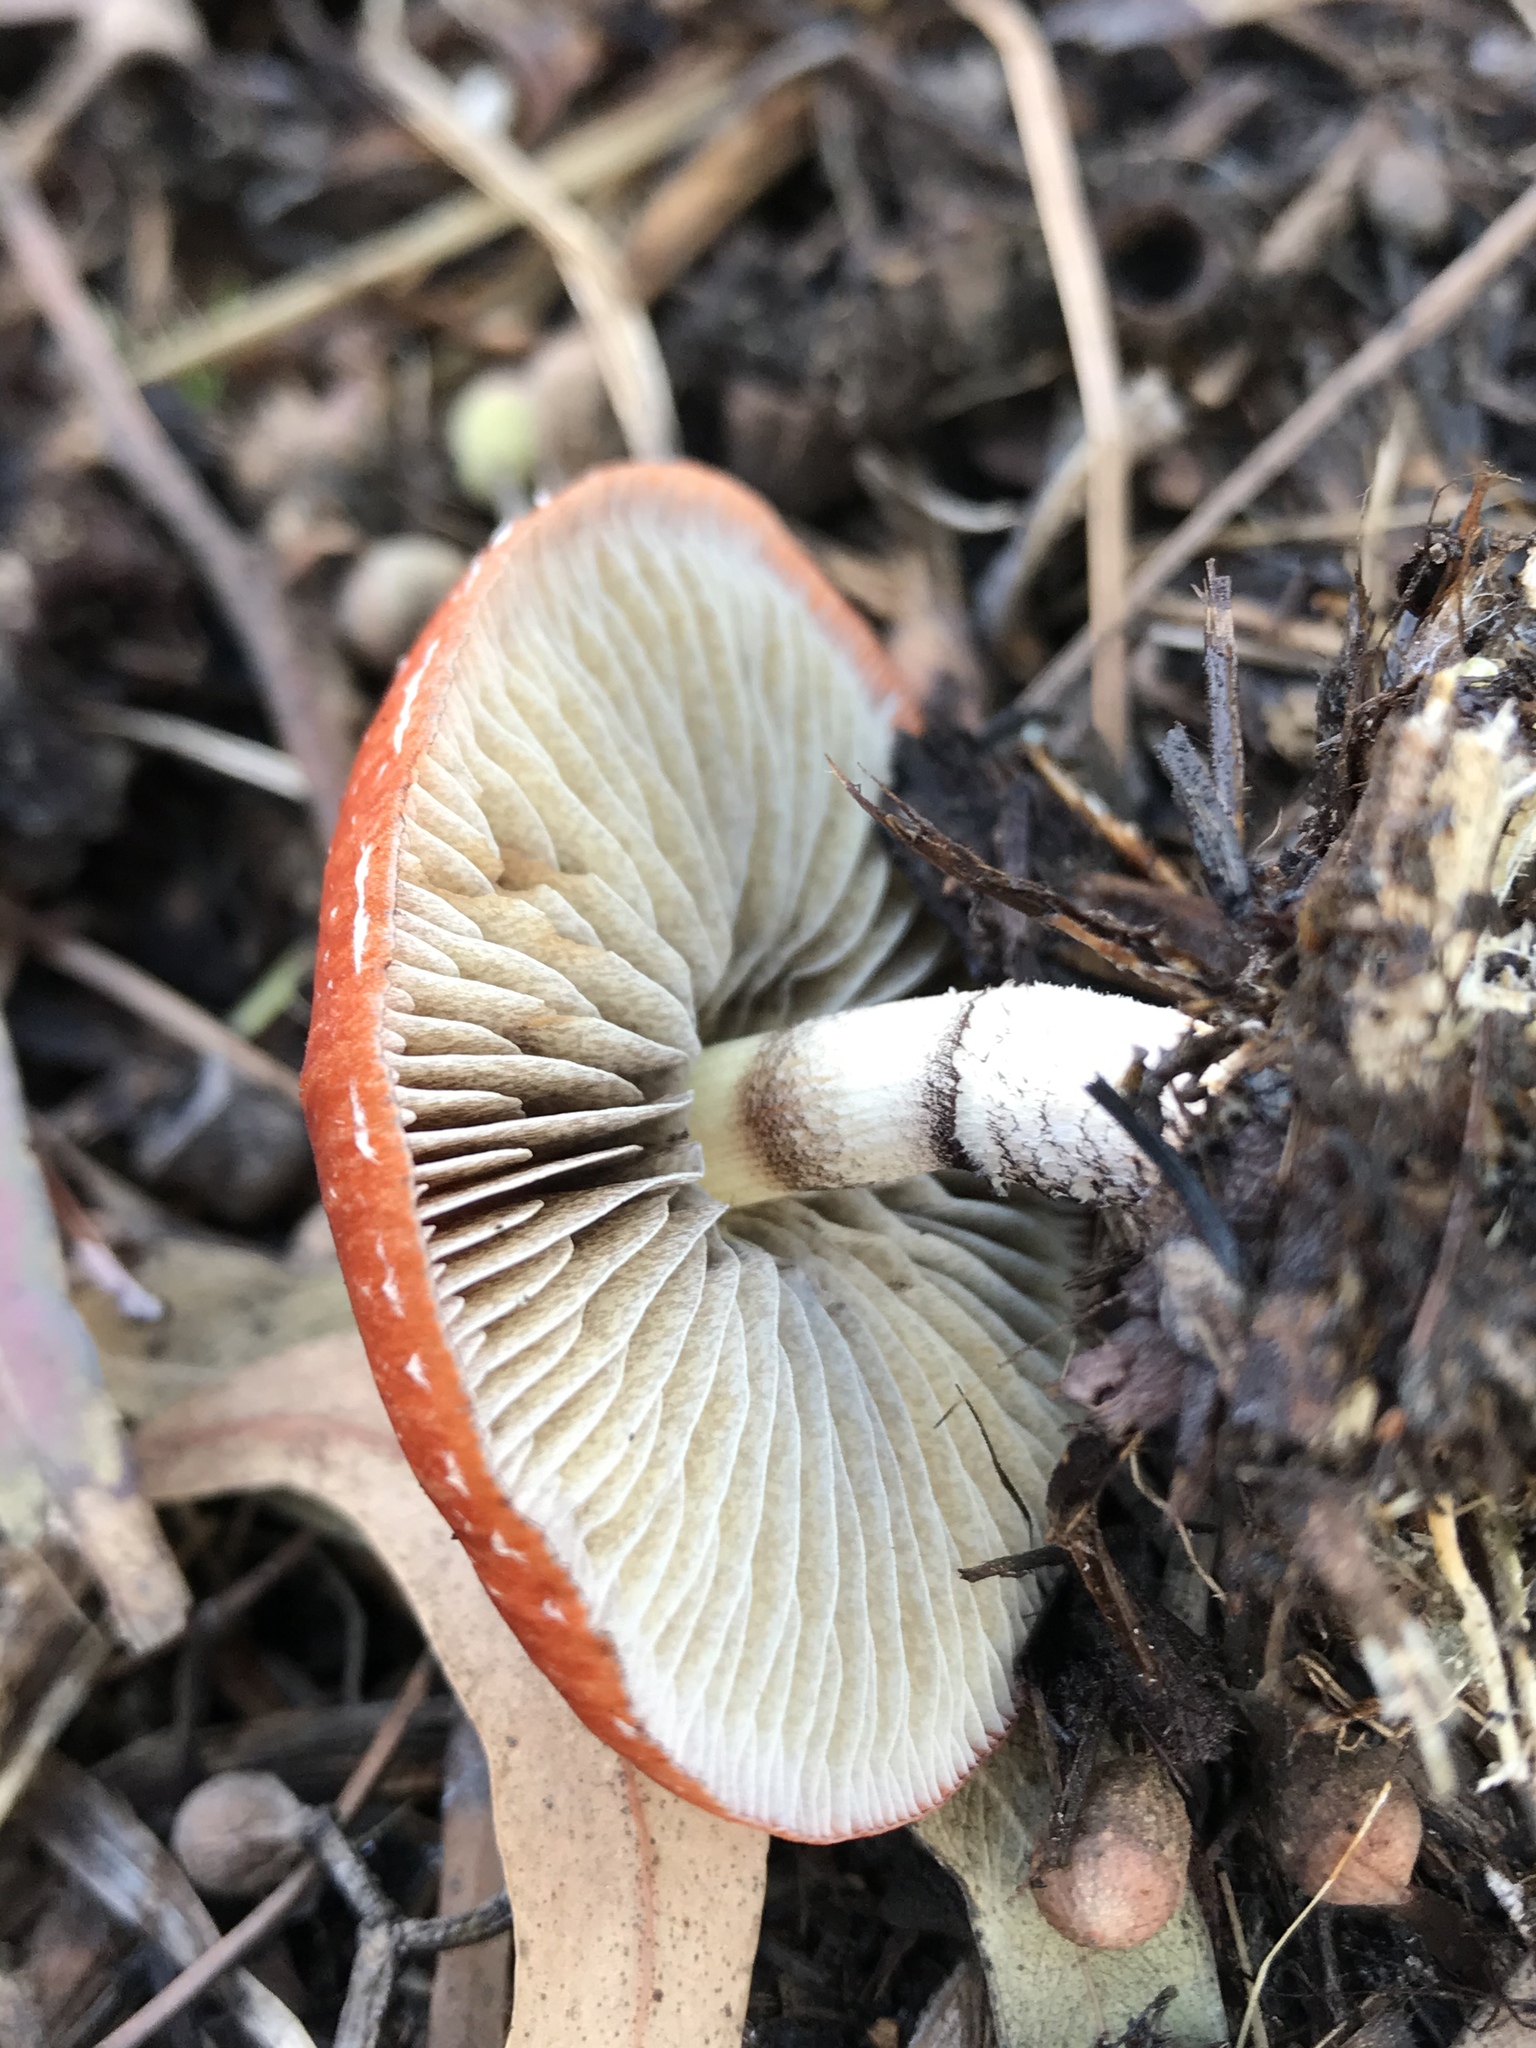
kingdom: Fungi
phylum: Basidiomycota
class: Agaricomycetes
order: Agaricales
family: Strophariaceae
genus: Leratiomyces
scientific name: Leratiomyces ceres
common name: Redlead roundhead
